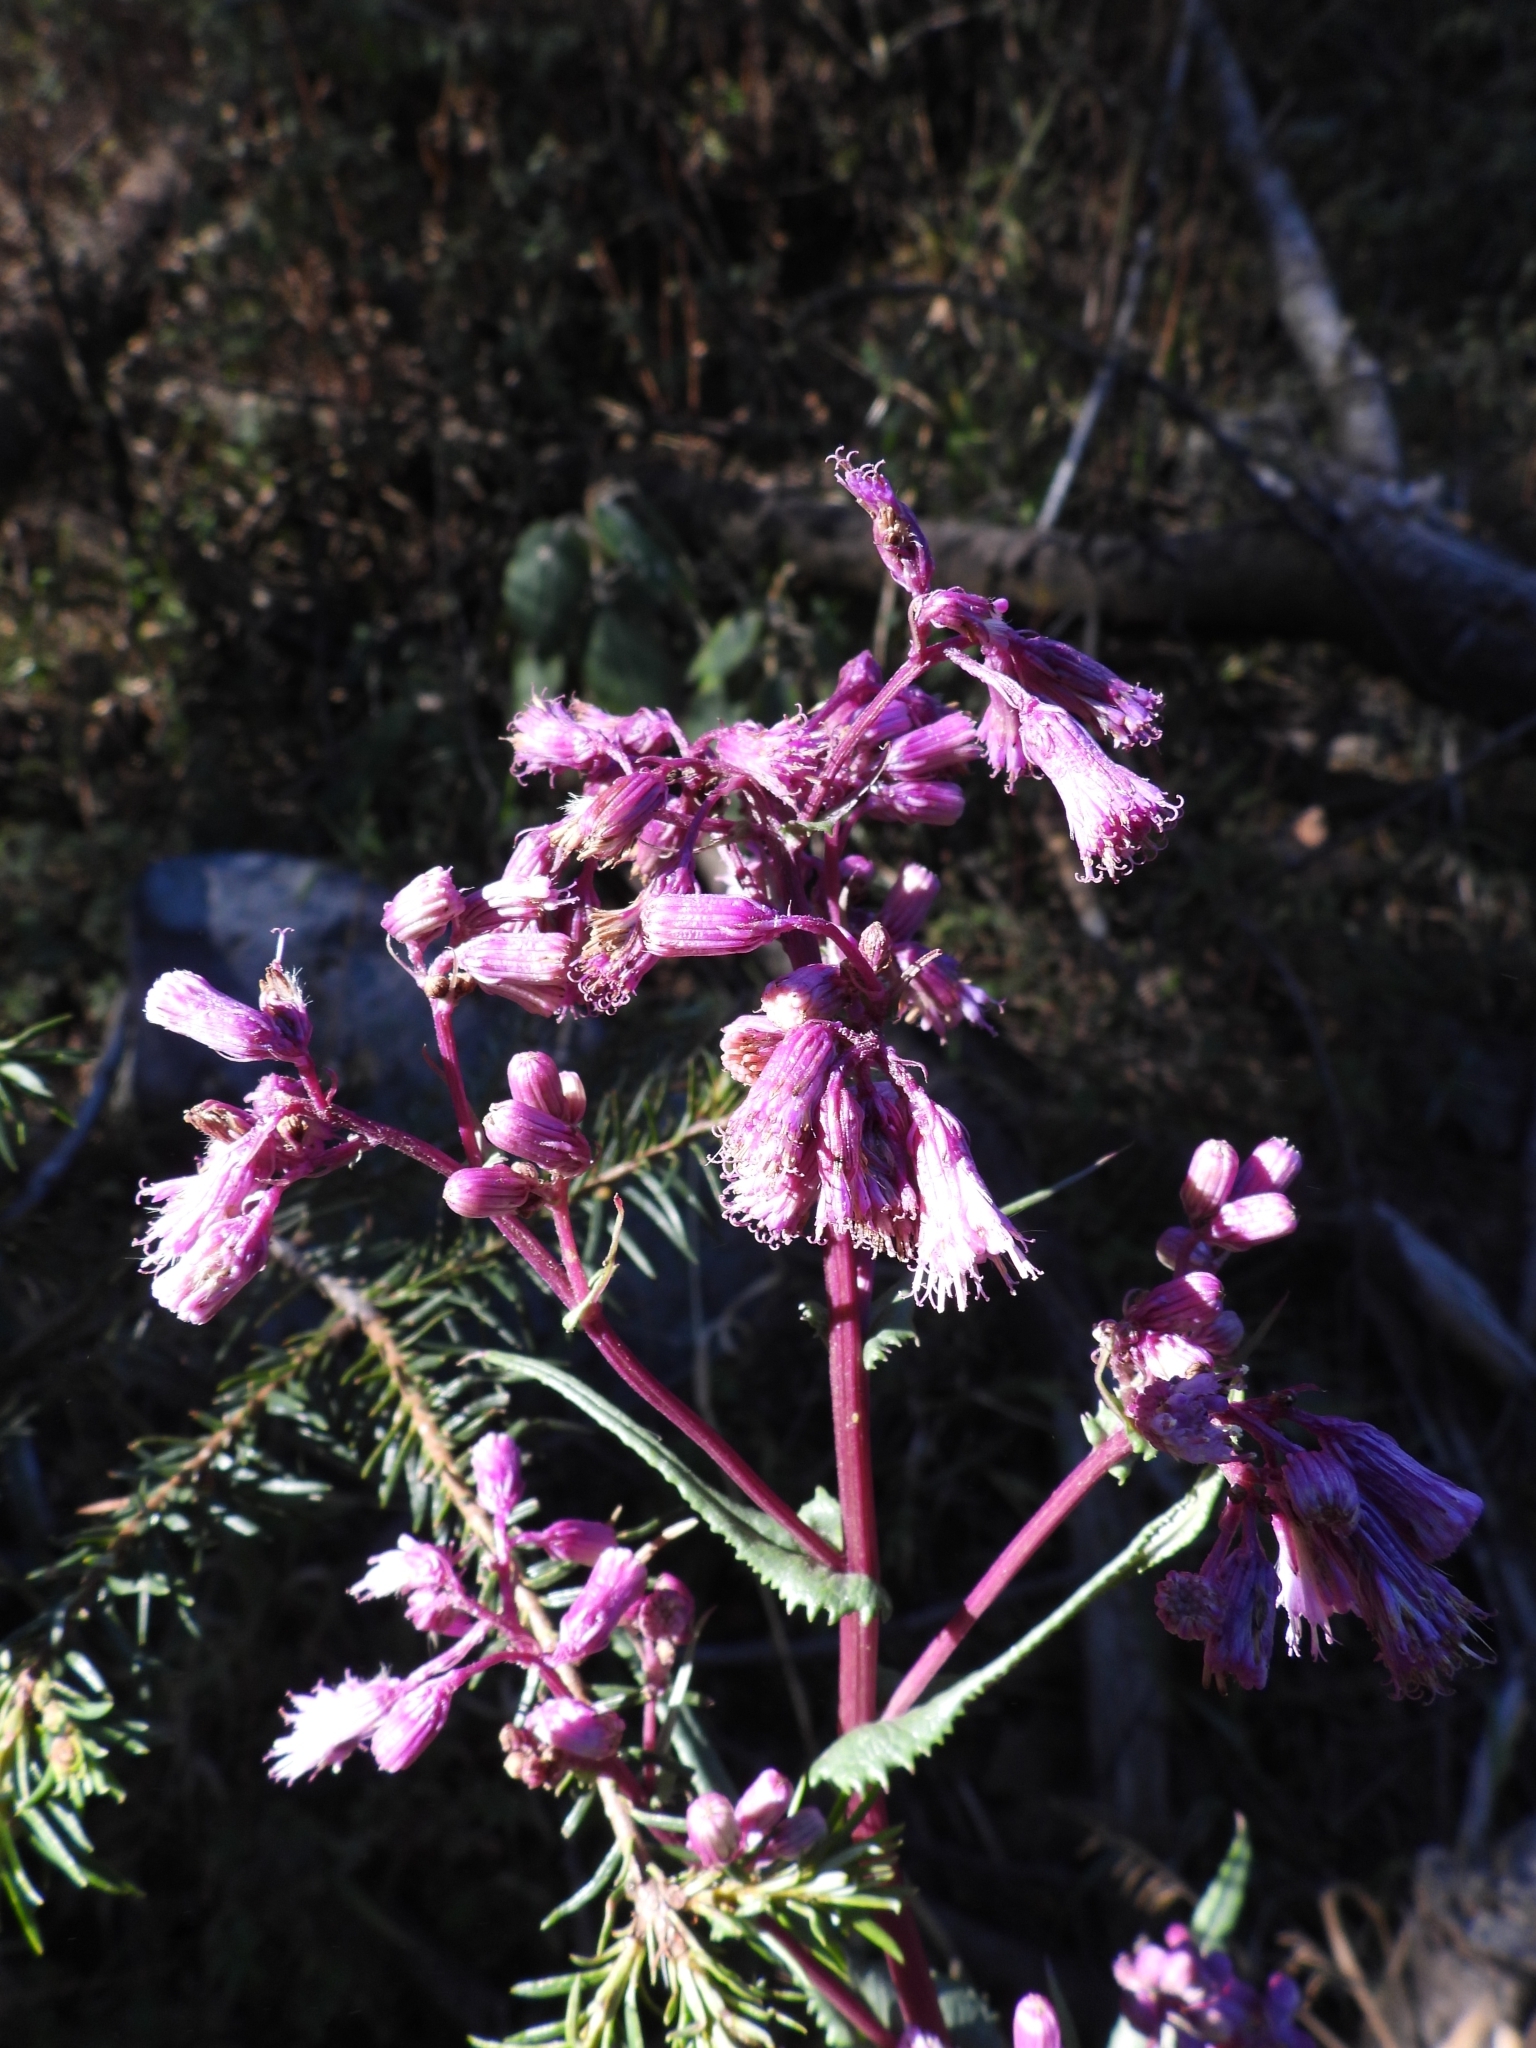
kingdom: Plantae
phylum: Tracheophyta
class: Magnoliopsida
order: Asterales
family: Asteraceae
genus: Senecio
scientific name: Senecio callosus
